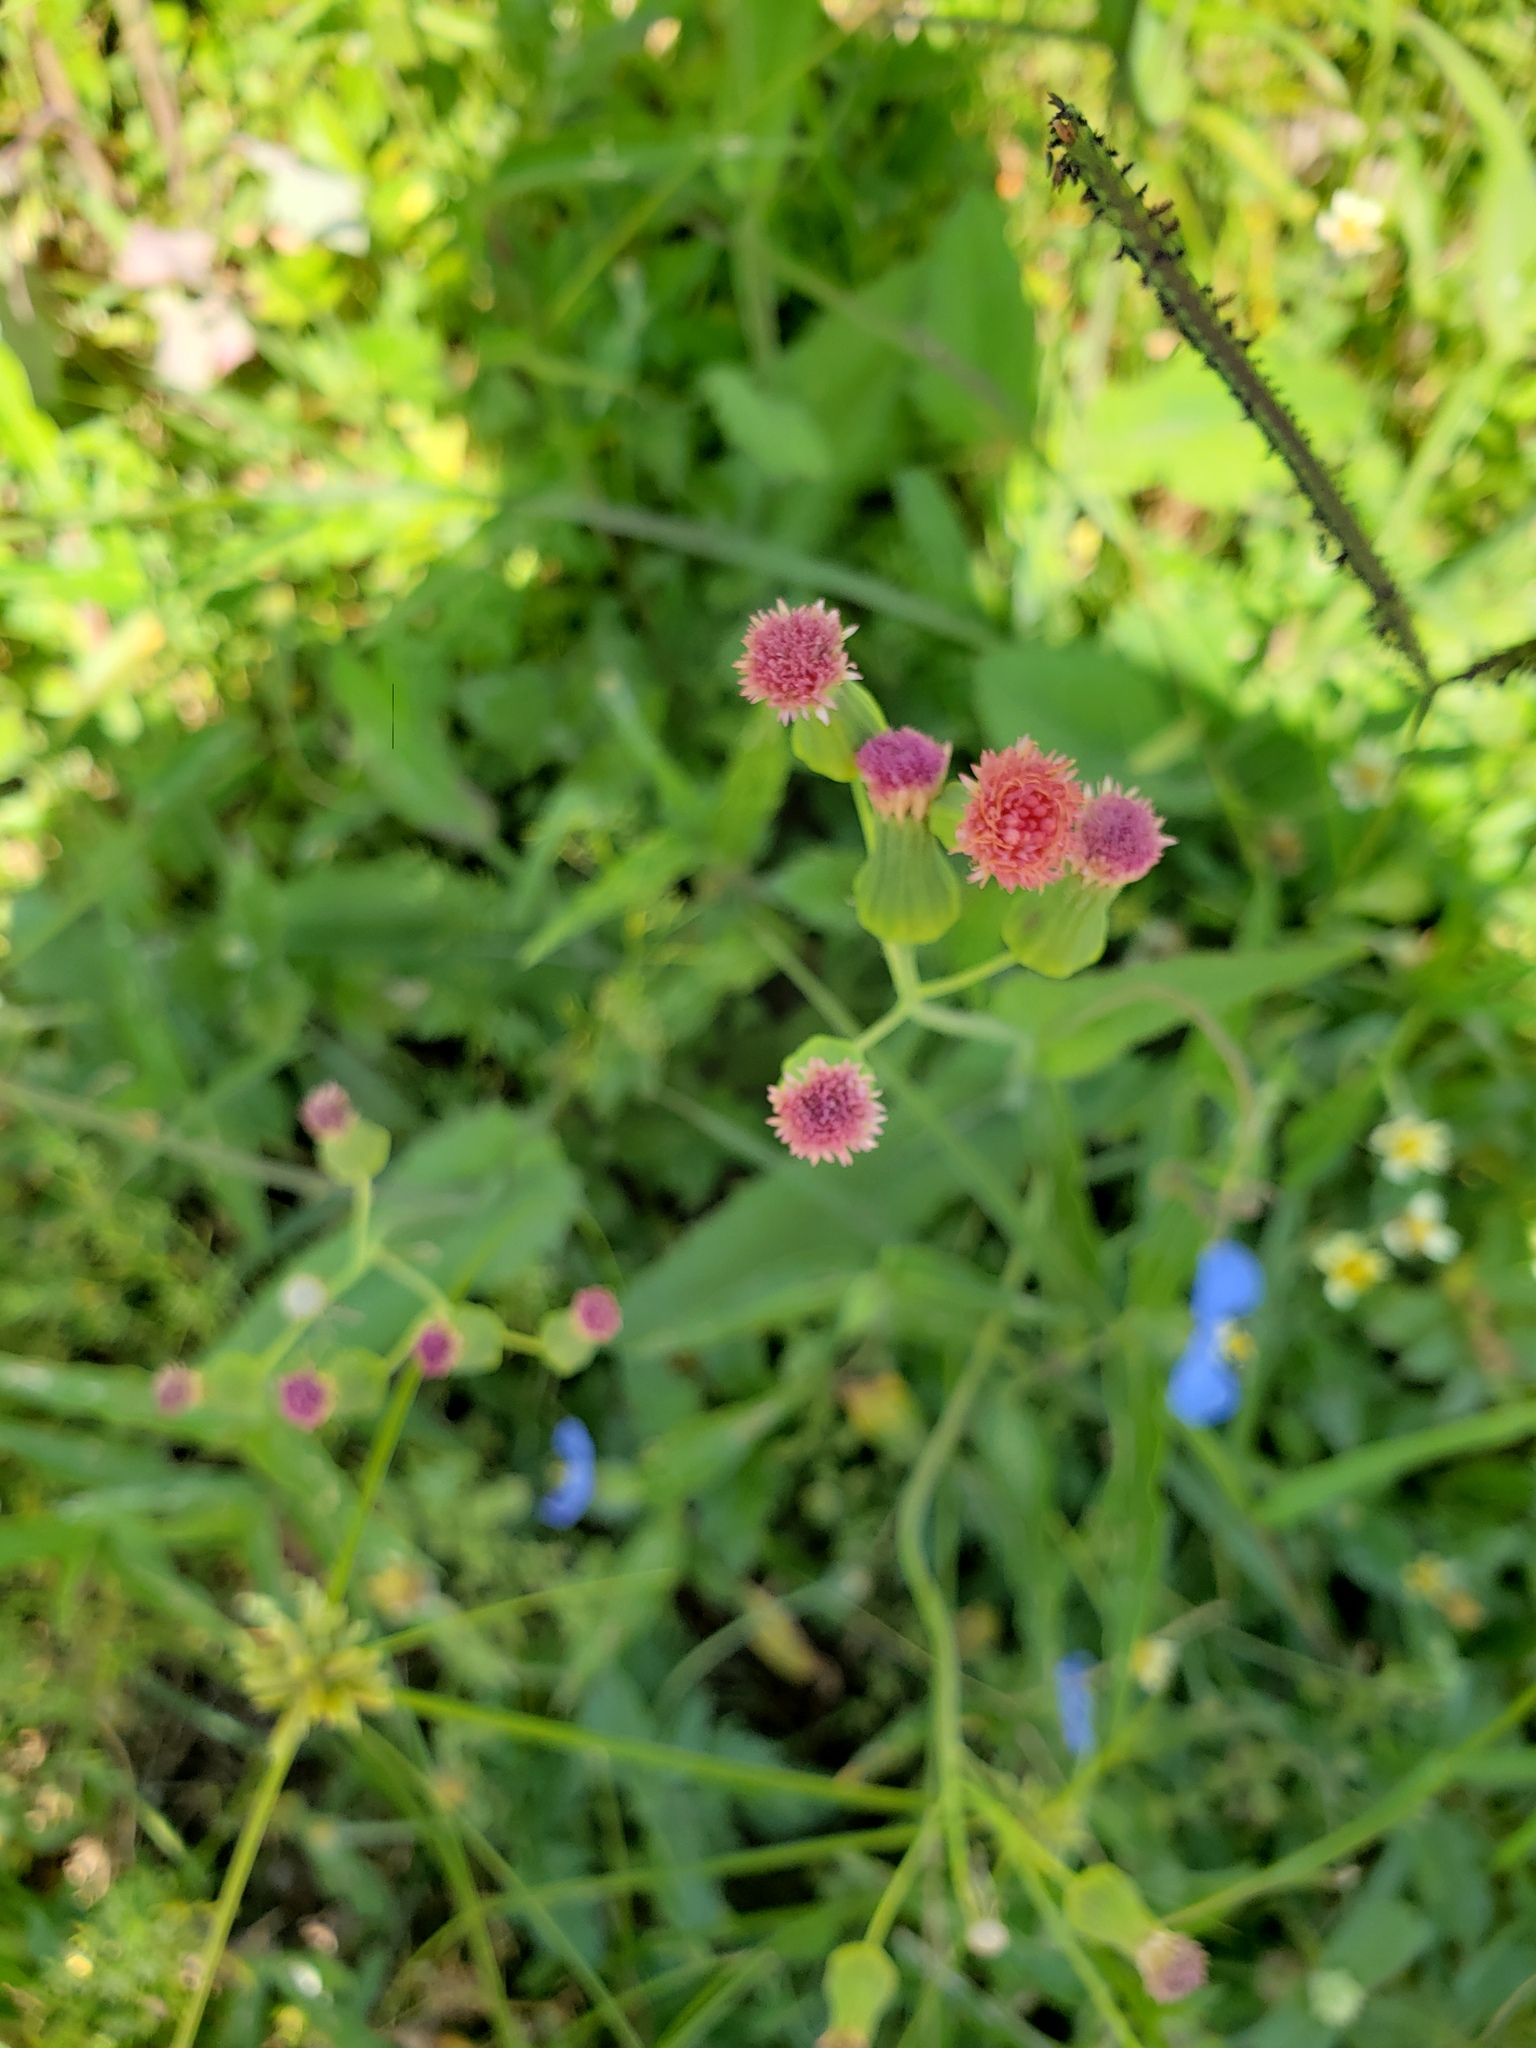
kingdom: Plantae
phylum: Tracheophyta
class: Magnoliopsida
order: Asterales
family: Asteraceae
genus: Emilia
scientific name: Emilia fosbergii
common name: Florida tasselflower
